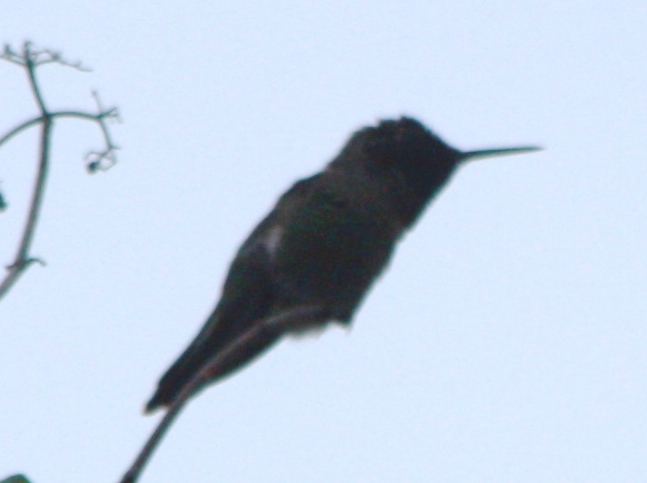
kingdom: Animalia
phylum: Chordata
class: Aves
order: Apodiformes
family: Trochilidae
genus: Calypte
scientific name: Calypte anna
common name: Anna's hummingbird
